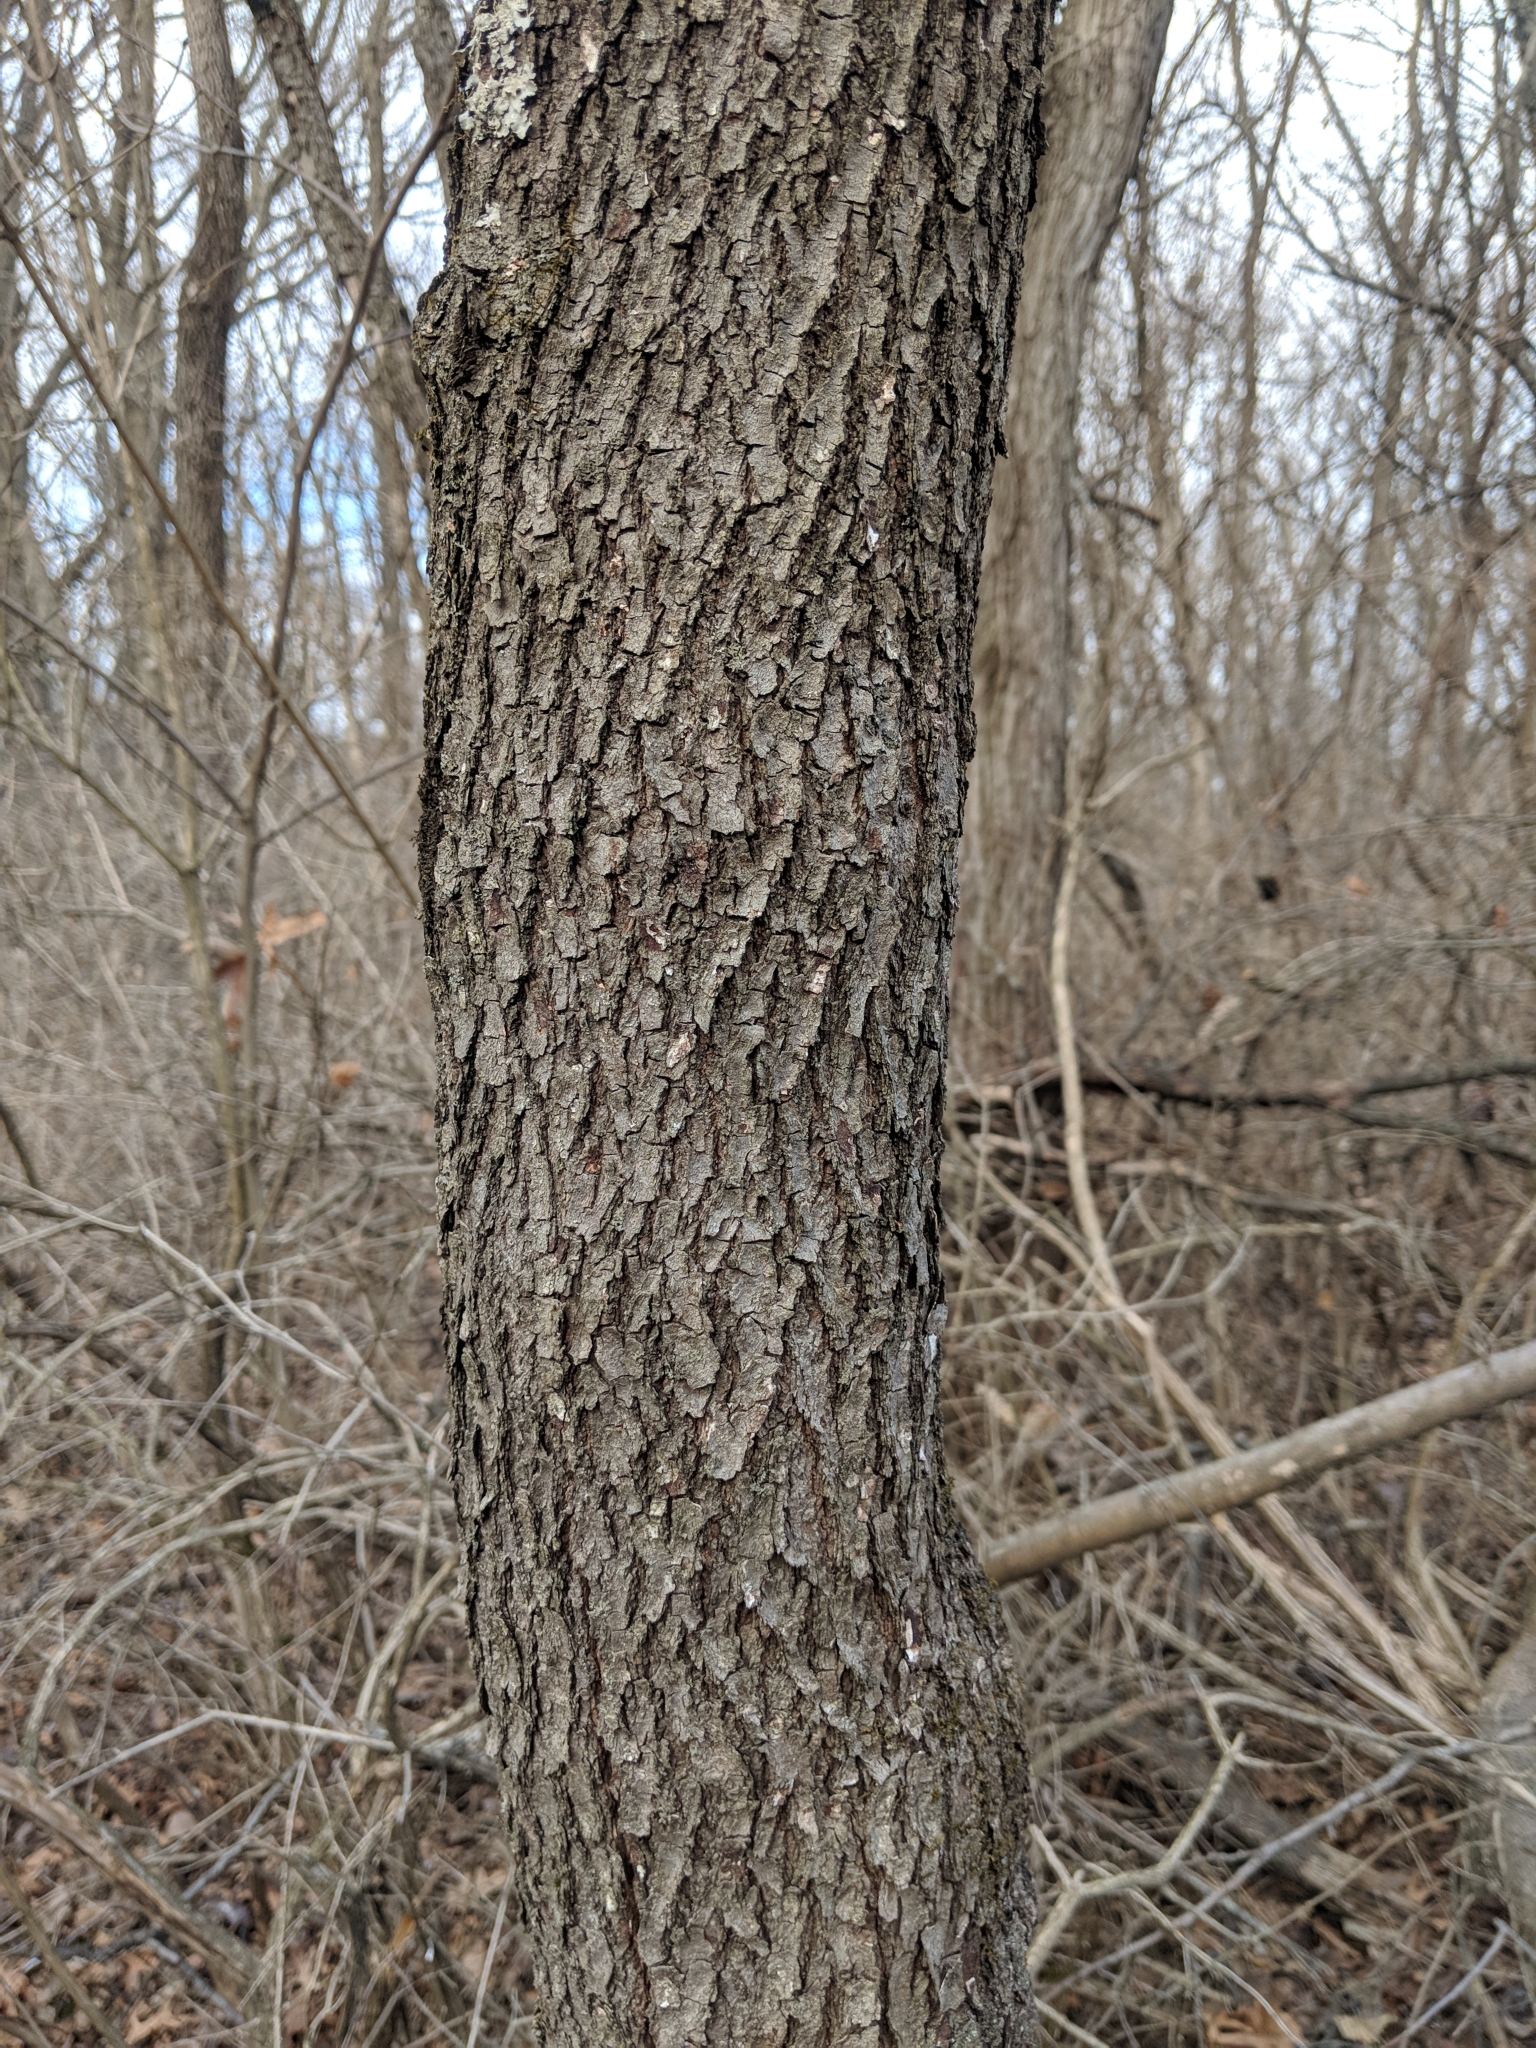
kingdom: Plantae
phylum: Tracheophyta
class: Magnoliopsida
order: Fabales
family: Fabaceae
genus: Cercis
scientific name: Cercis canadensis
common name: Eastern redbud
